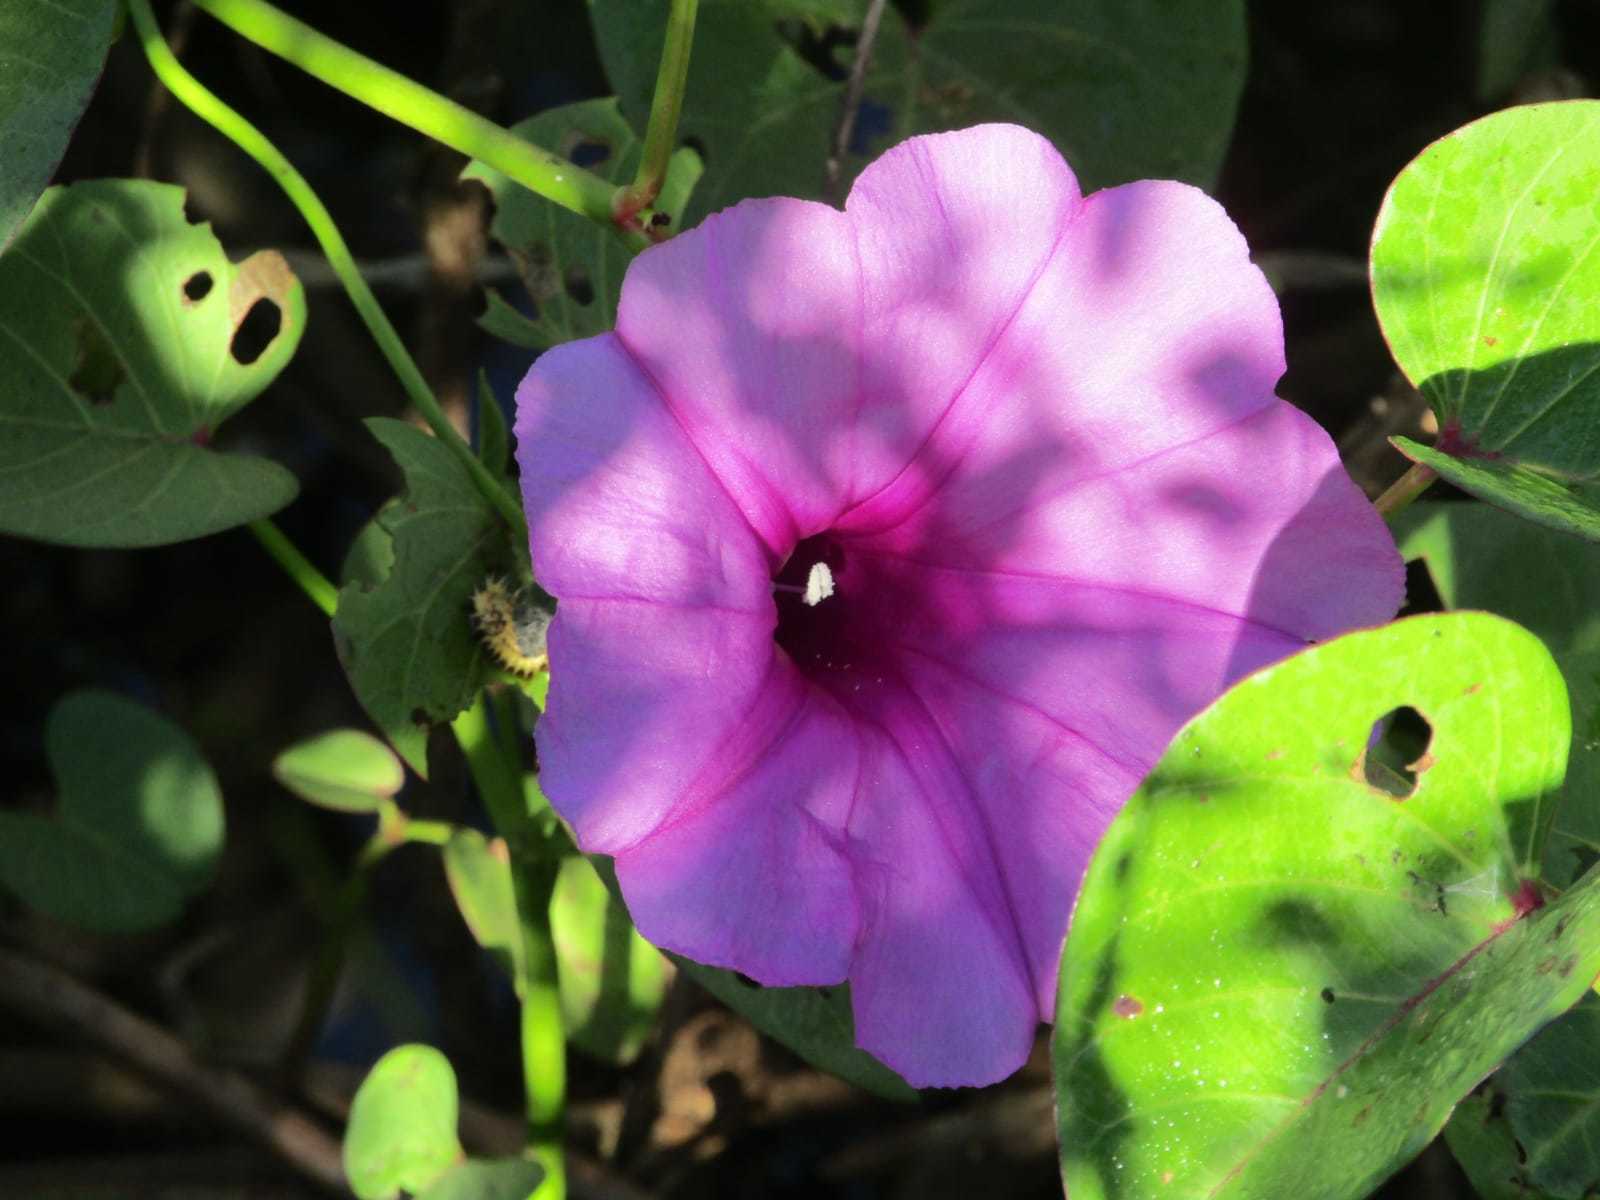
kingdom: Plantae
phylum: Tracheophyta
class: Magnoliopsida
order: Solanales
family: Convolvulaceae
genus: Ipomoea
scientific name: Ipomoea asarifolia
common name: Ginger-leaf morning-glory
